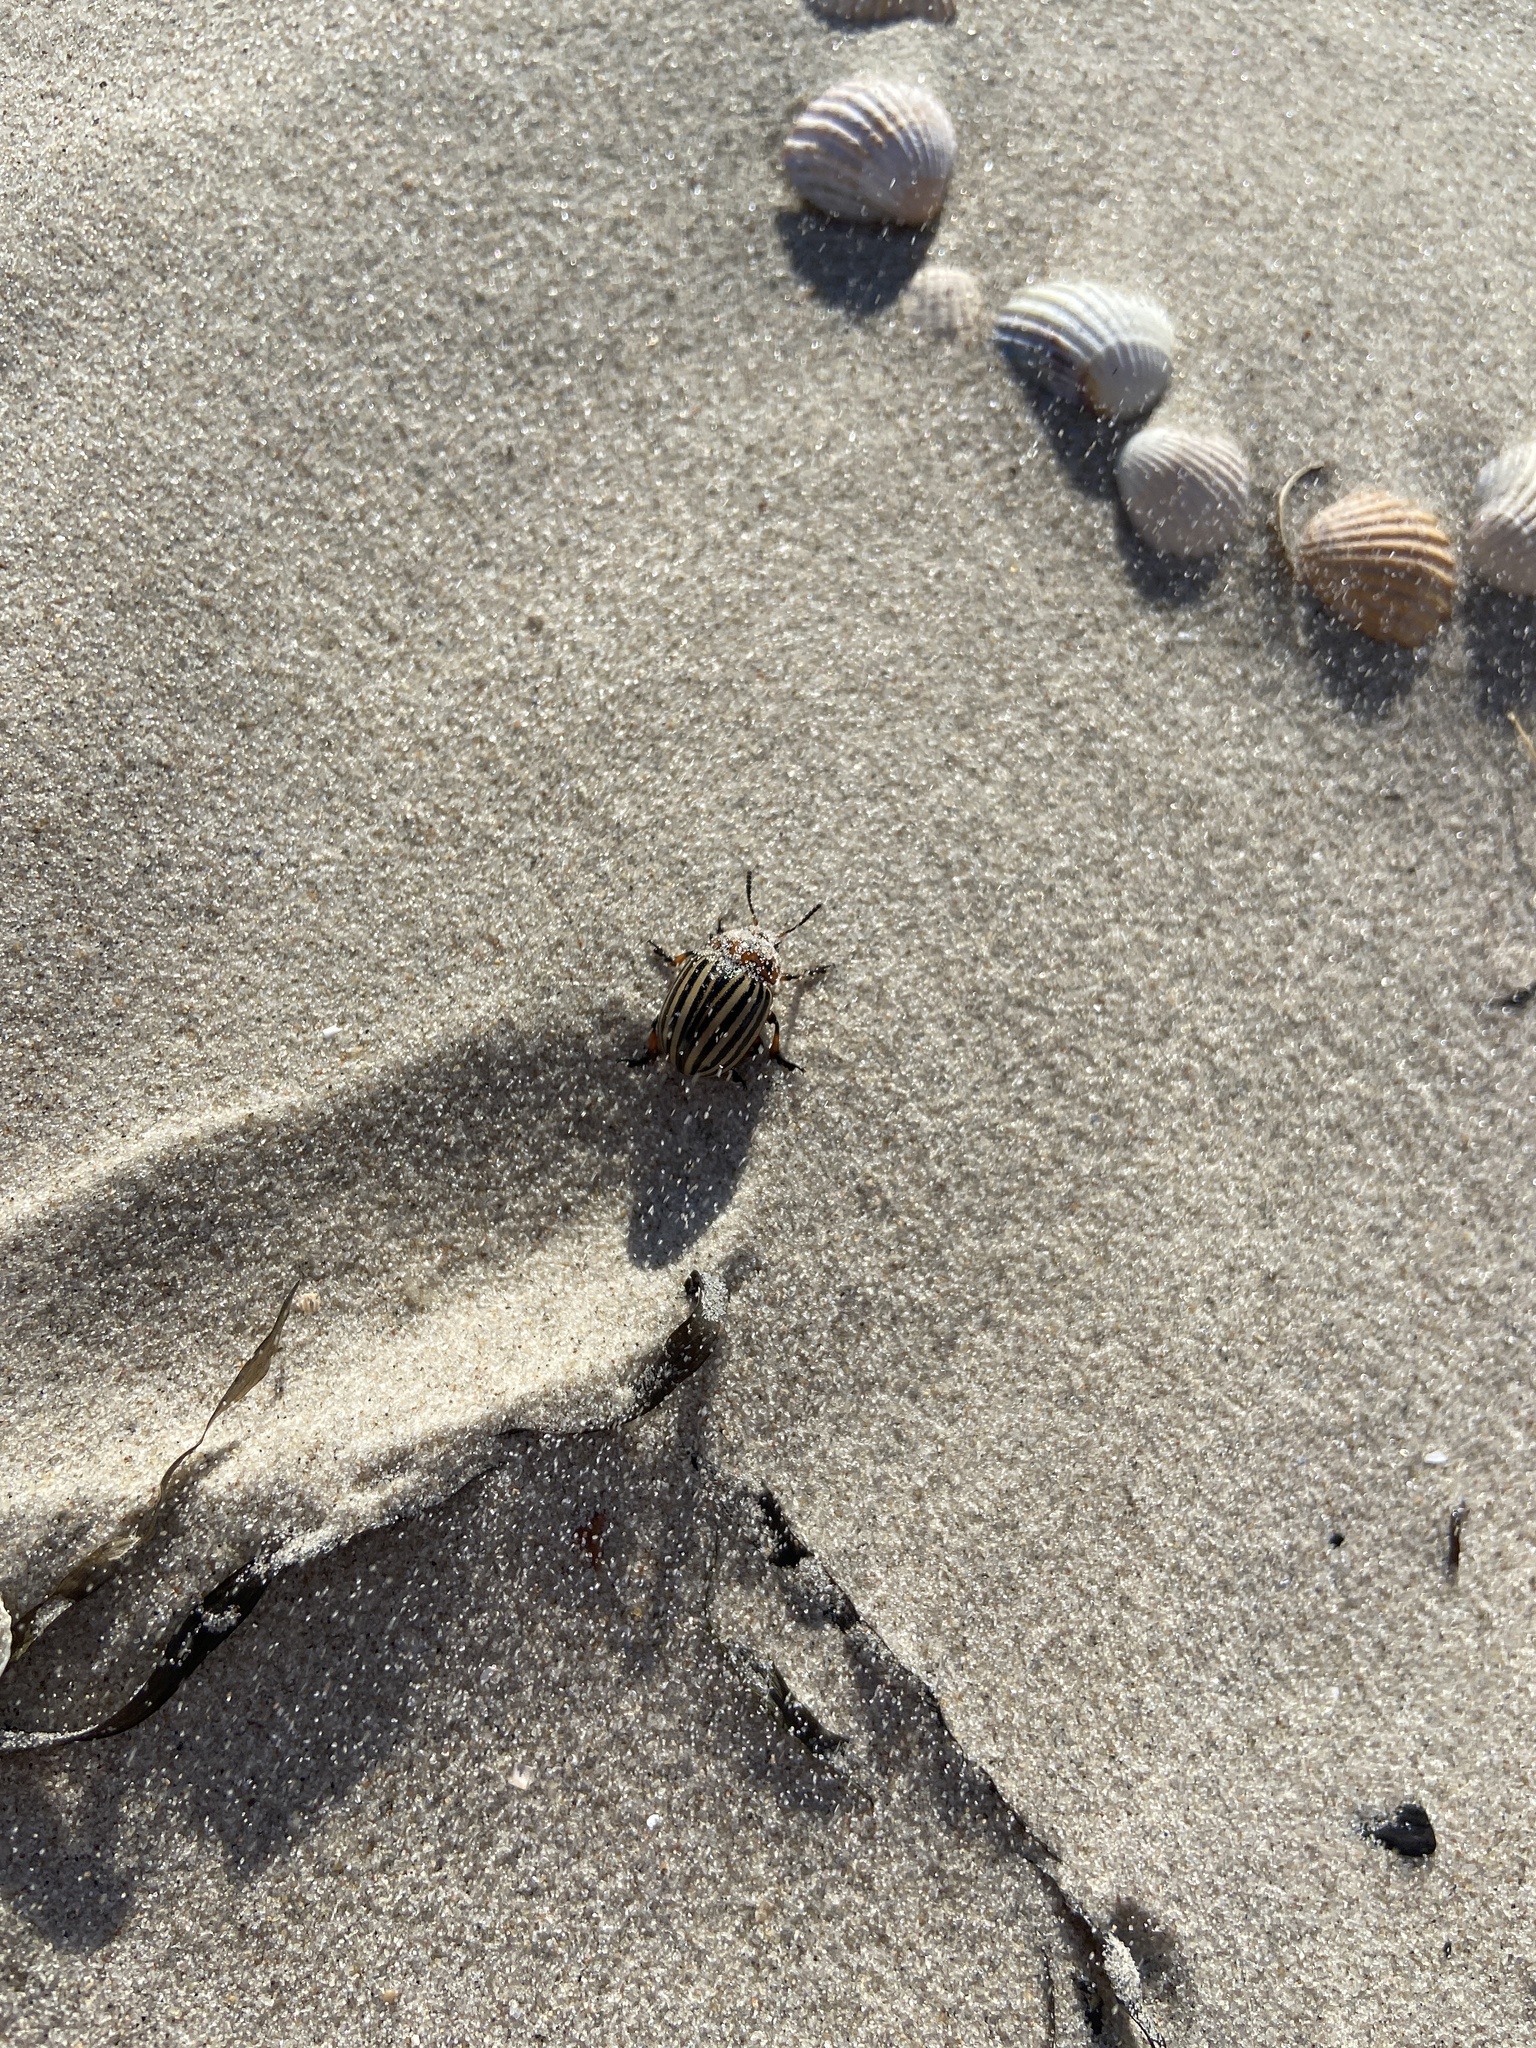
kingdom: Animalia
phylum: Arthropoda
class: Insecta
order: Coleoptera
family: Chrysomelidae
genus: Leptinotarsa
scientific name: Leptinotarsa decemlineata
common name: Colorado potato beetle
